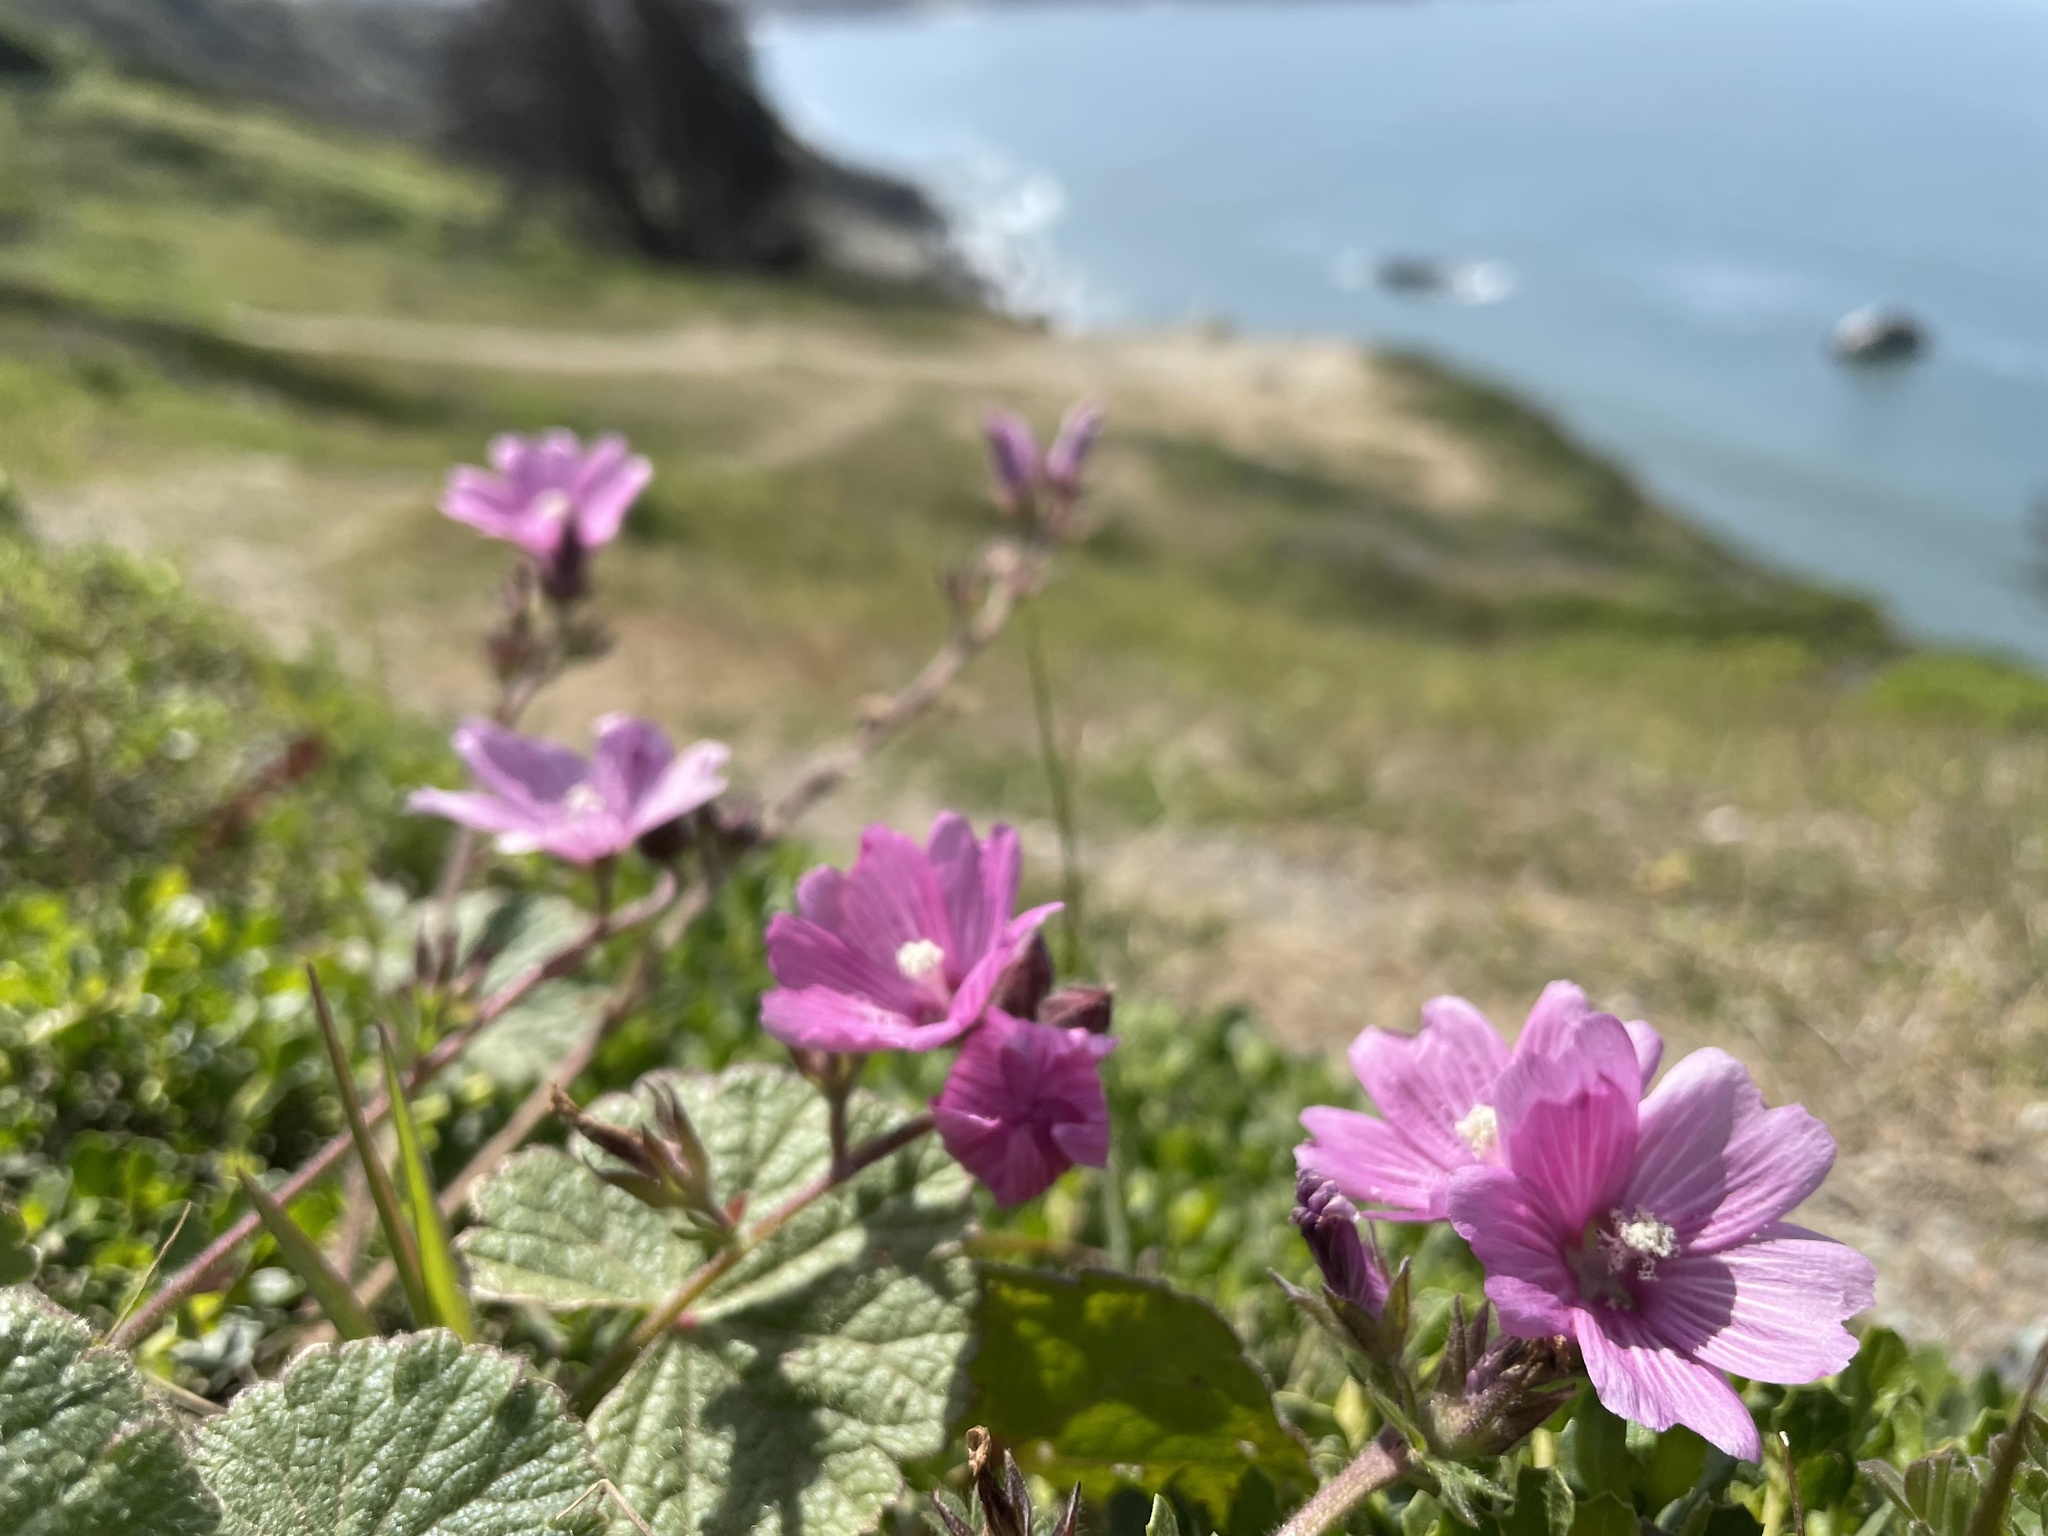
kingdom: Plantae
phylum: Tracheophyta
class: Magnoliopsida
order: Malvales
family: Malvaceae
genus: Sidalcea
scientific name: Sidalcea malviflora
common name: Greek mallow
